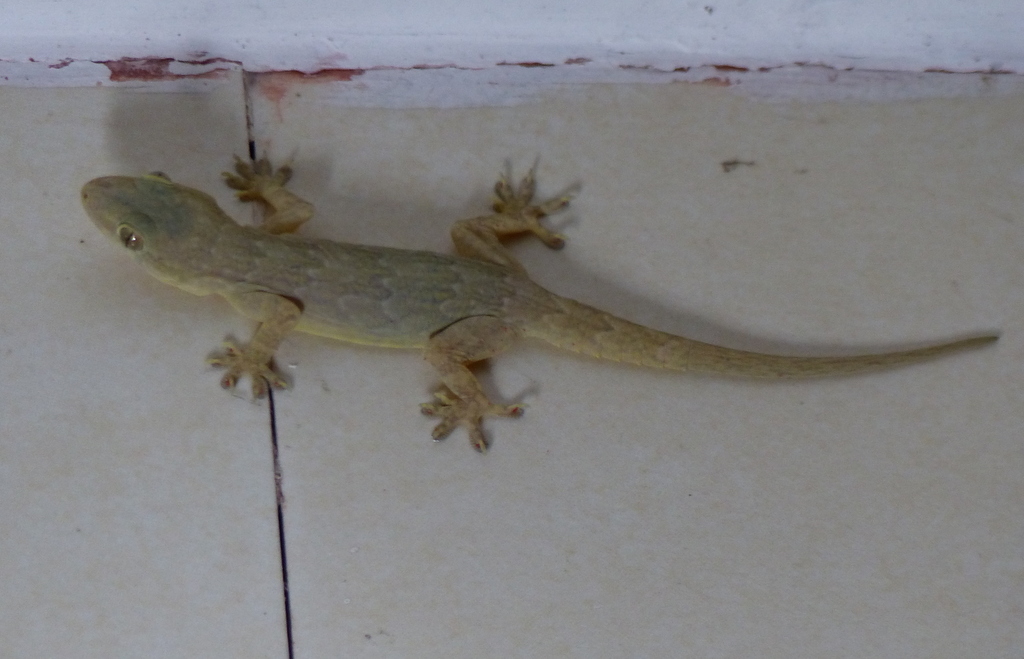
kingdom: Animalia
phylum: Chordata
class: Squamata
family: Gekkonidae
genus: Hemidactylus
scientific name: Hemidactylus flaviviridis
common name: Northern house gecko
